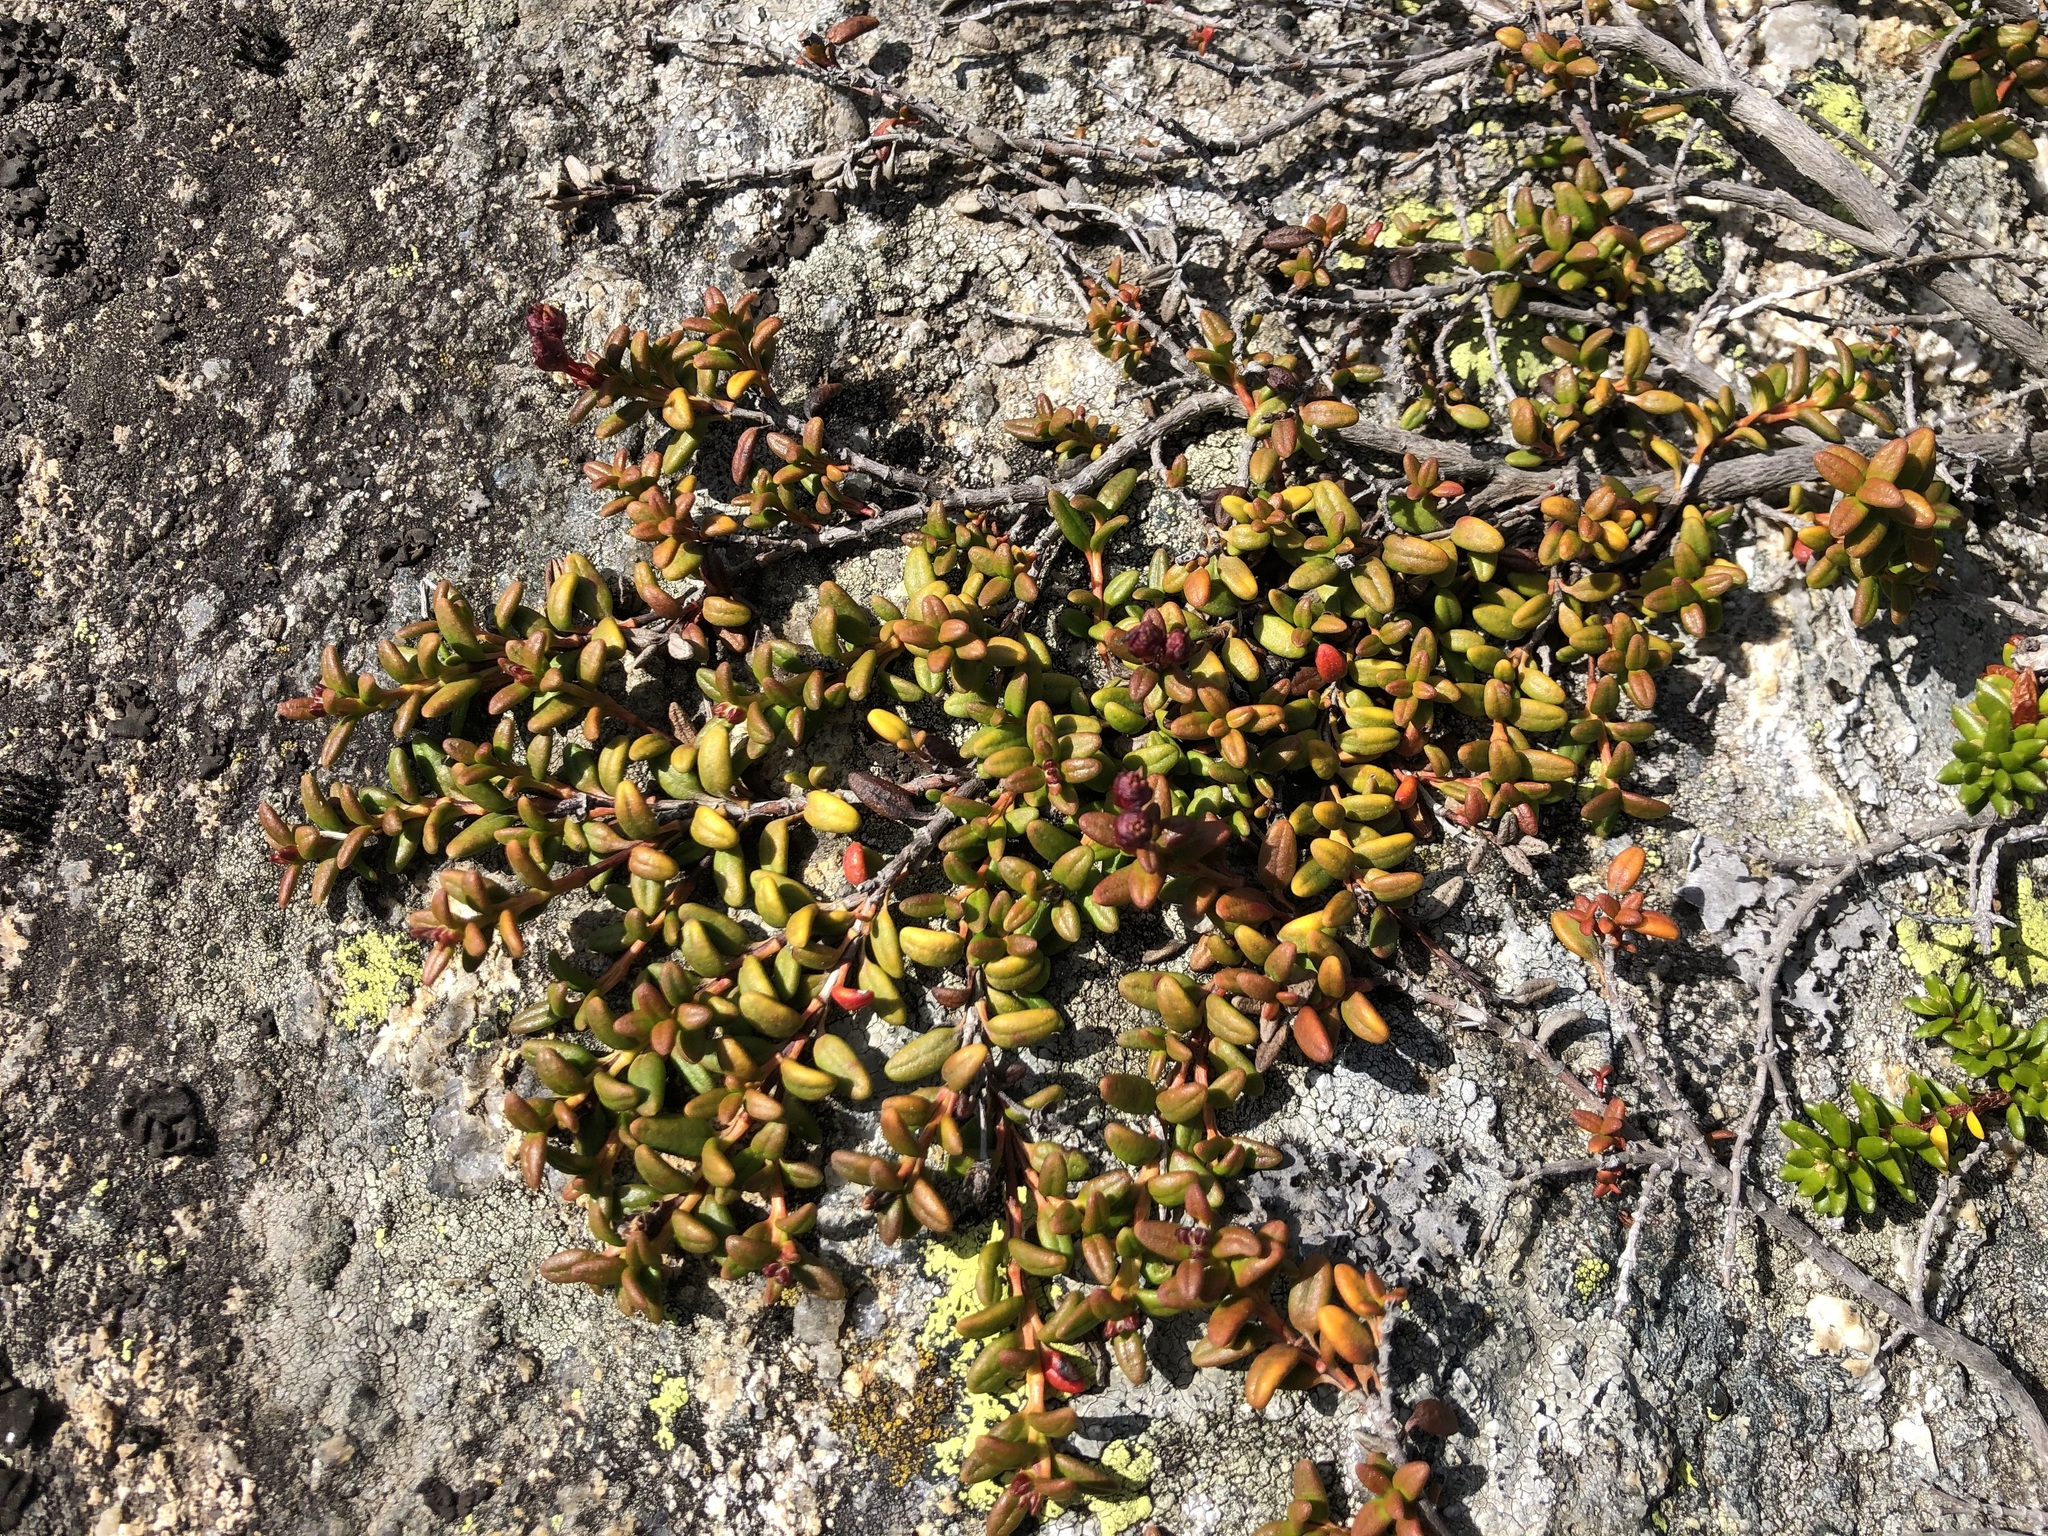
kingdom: Plantae
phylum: Tracheophyta
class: Magnoliopsida
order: Ericales
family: Ericaceae
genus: Kalmia
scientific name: Kalmia procumbens
